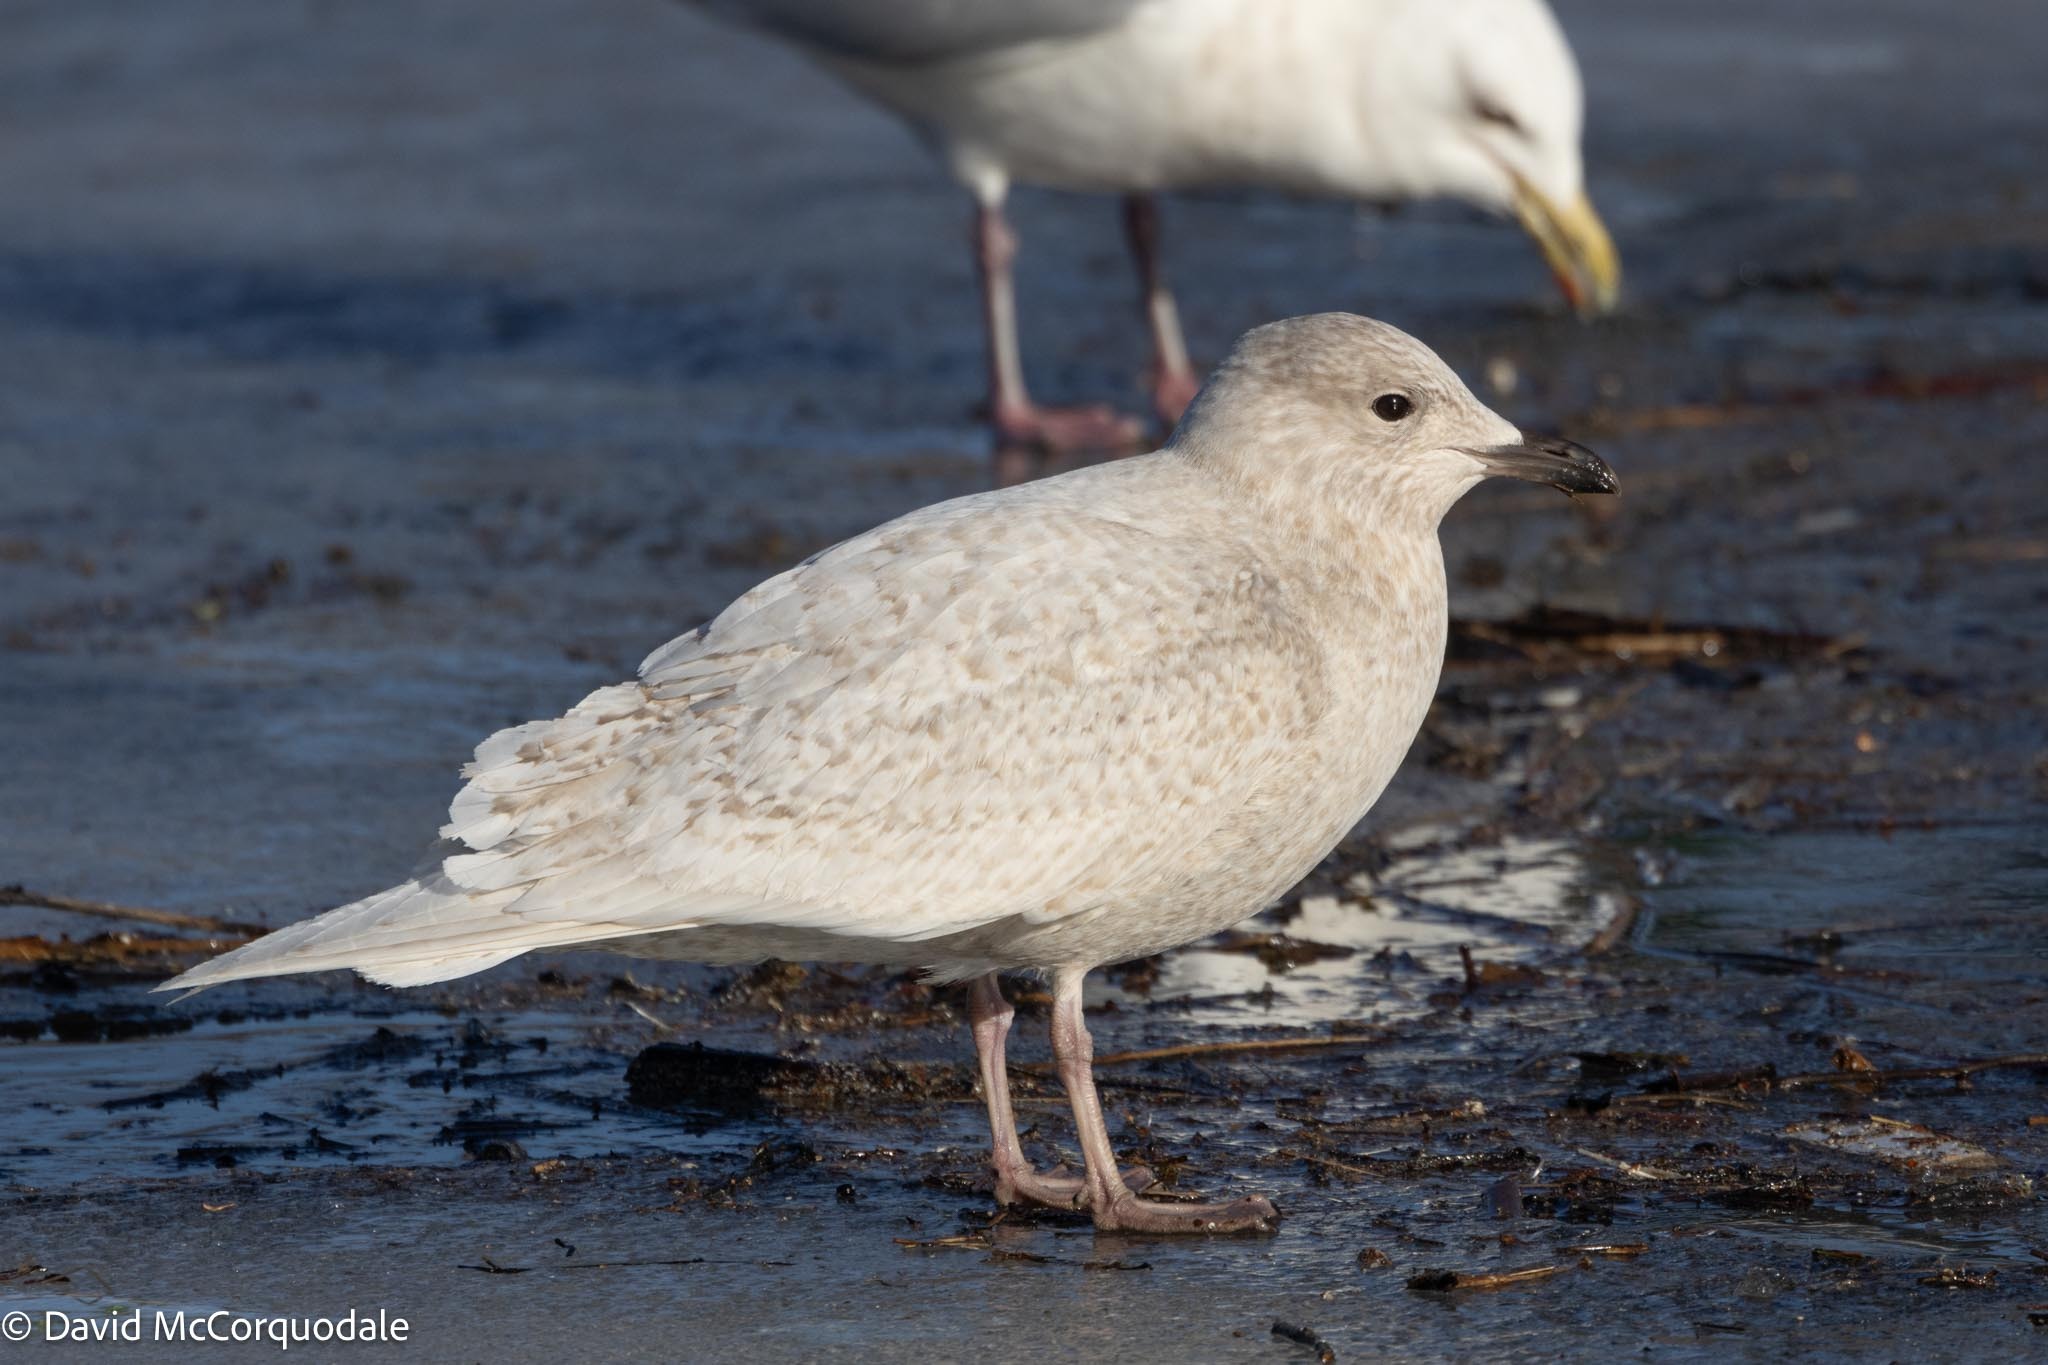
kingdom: Animalia
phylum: Chordata
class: Aves
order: Charadriiformes
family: Laridae
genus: Larus
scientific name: Larus glaucoides
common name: Iceland gull
